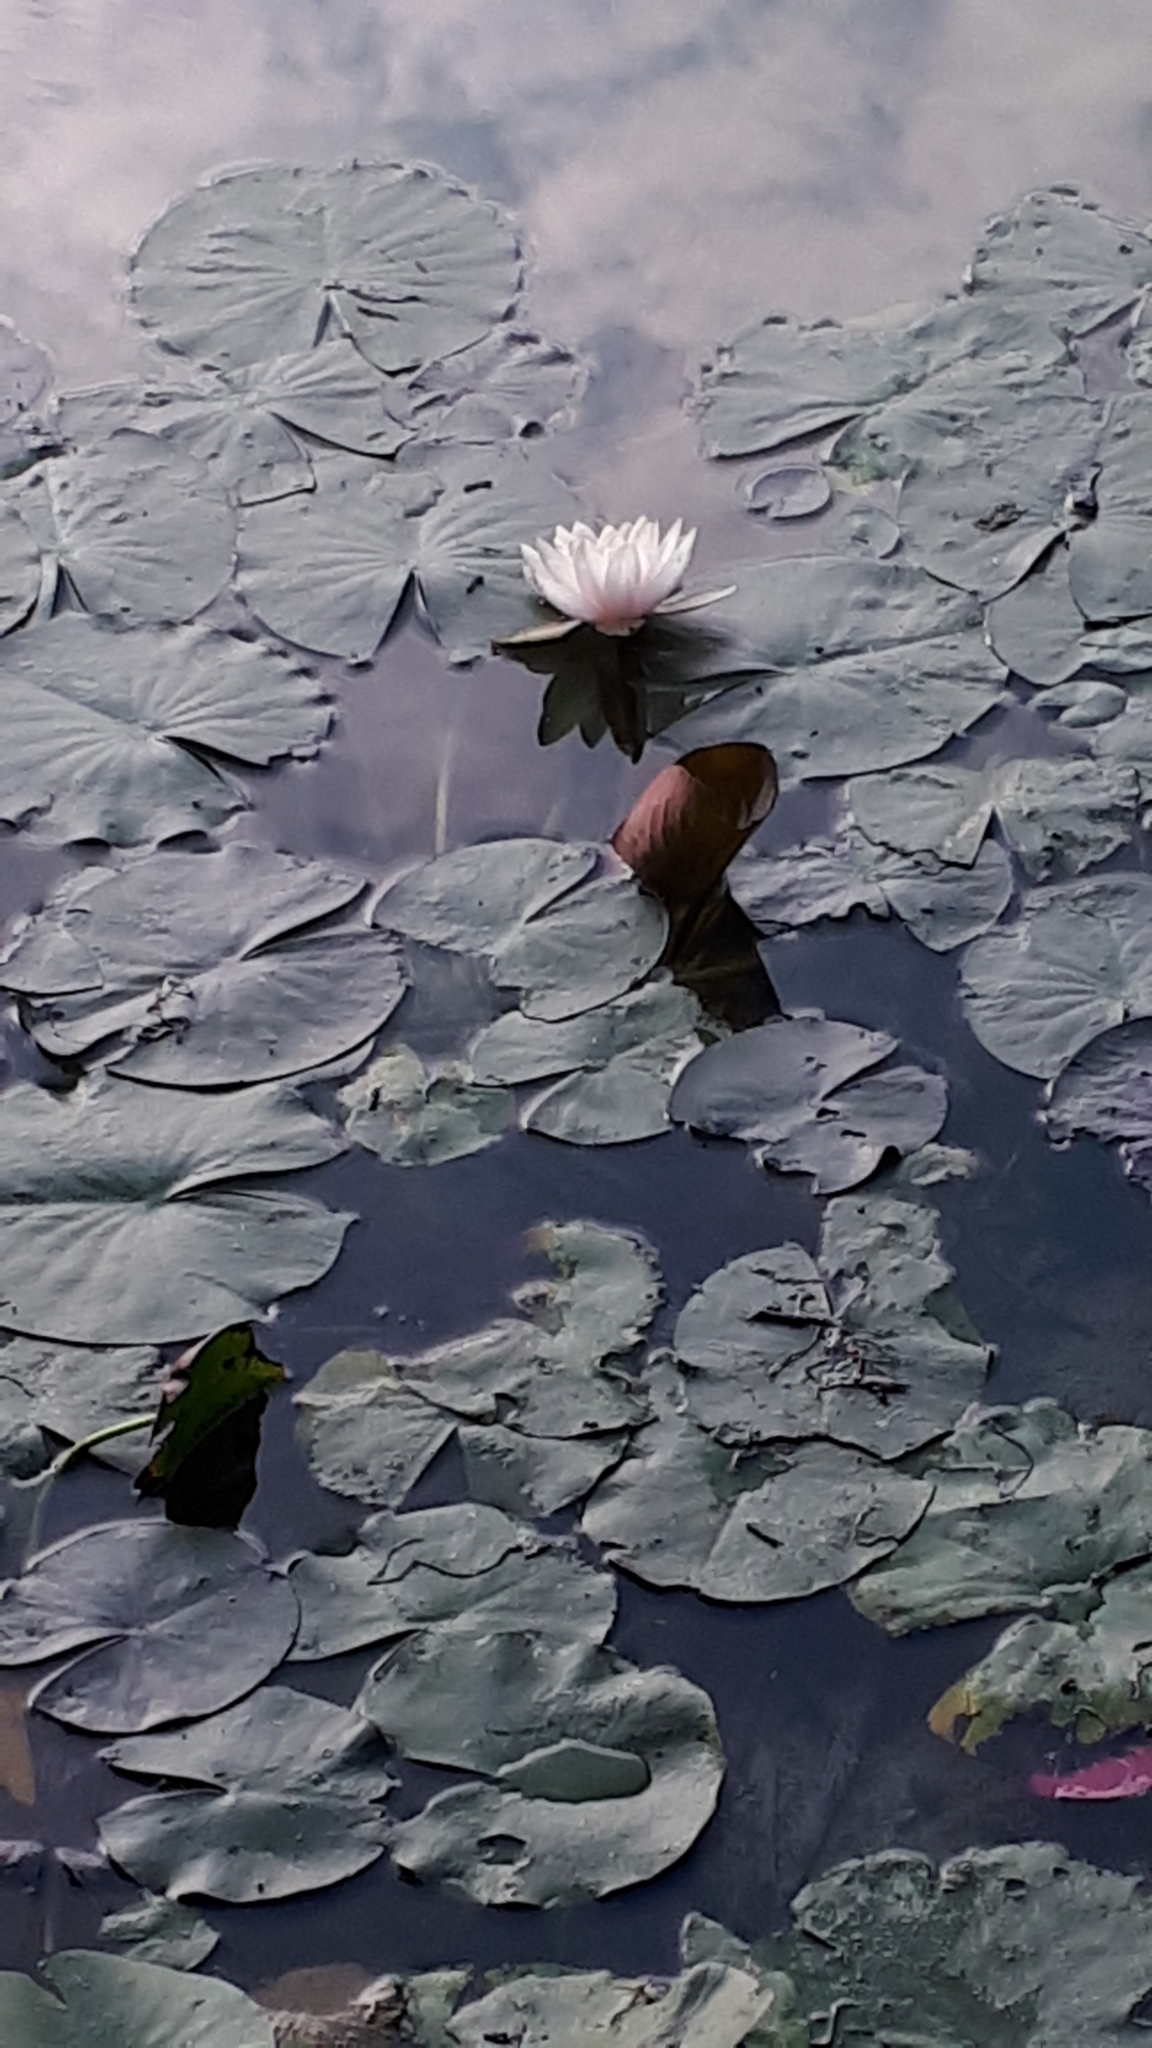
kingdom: Plantae
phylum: Tracheophyta
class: Magnoliopsida
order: Nymphaeales
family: Nymphaeaceae
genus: Nymphaea
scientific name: Nymphaea alba
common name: White water-lily
